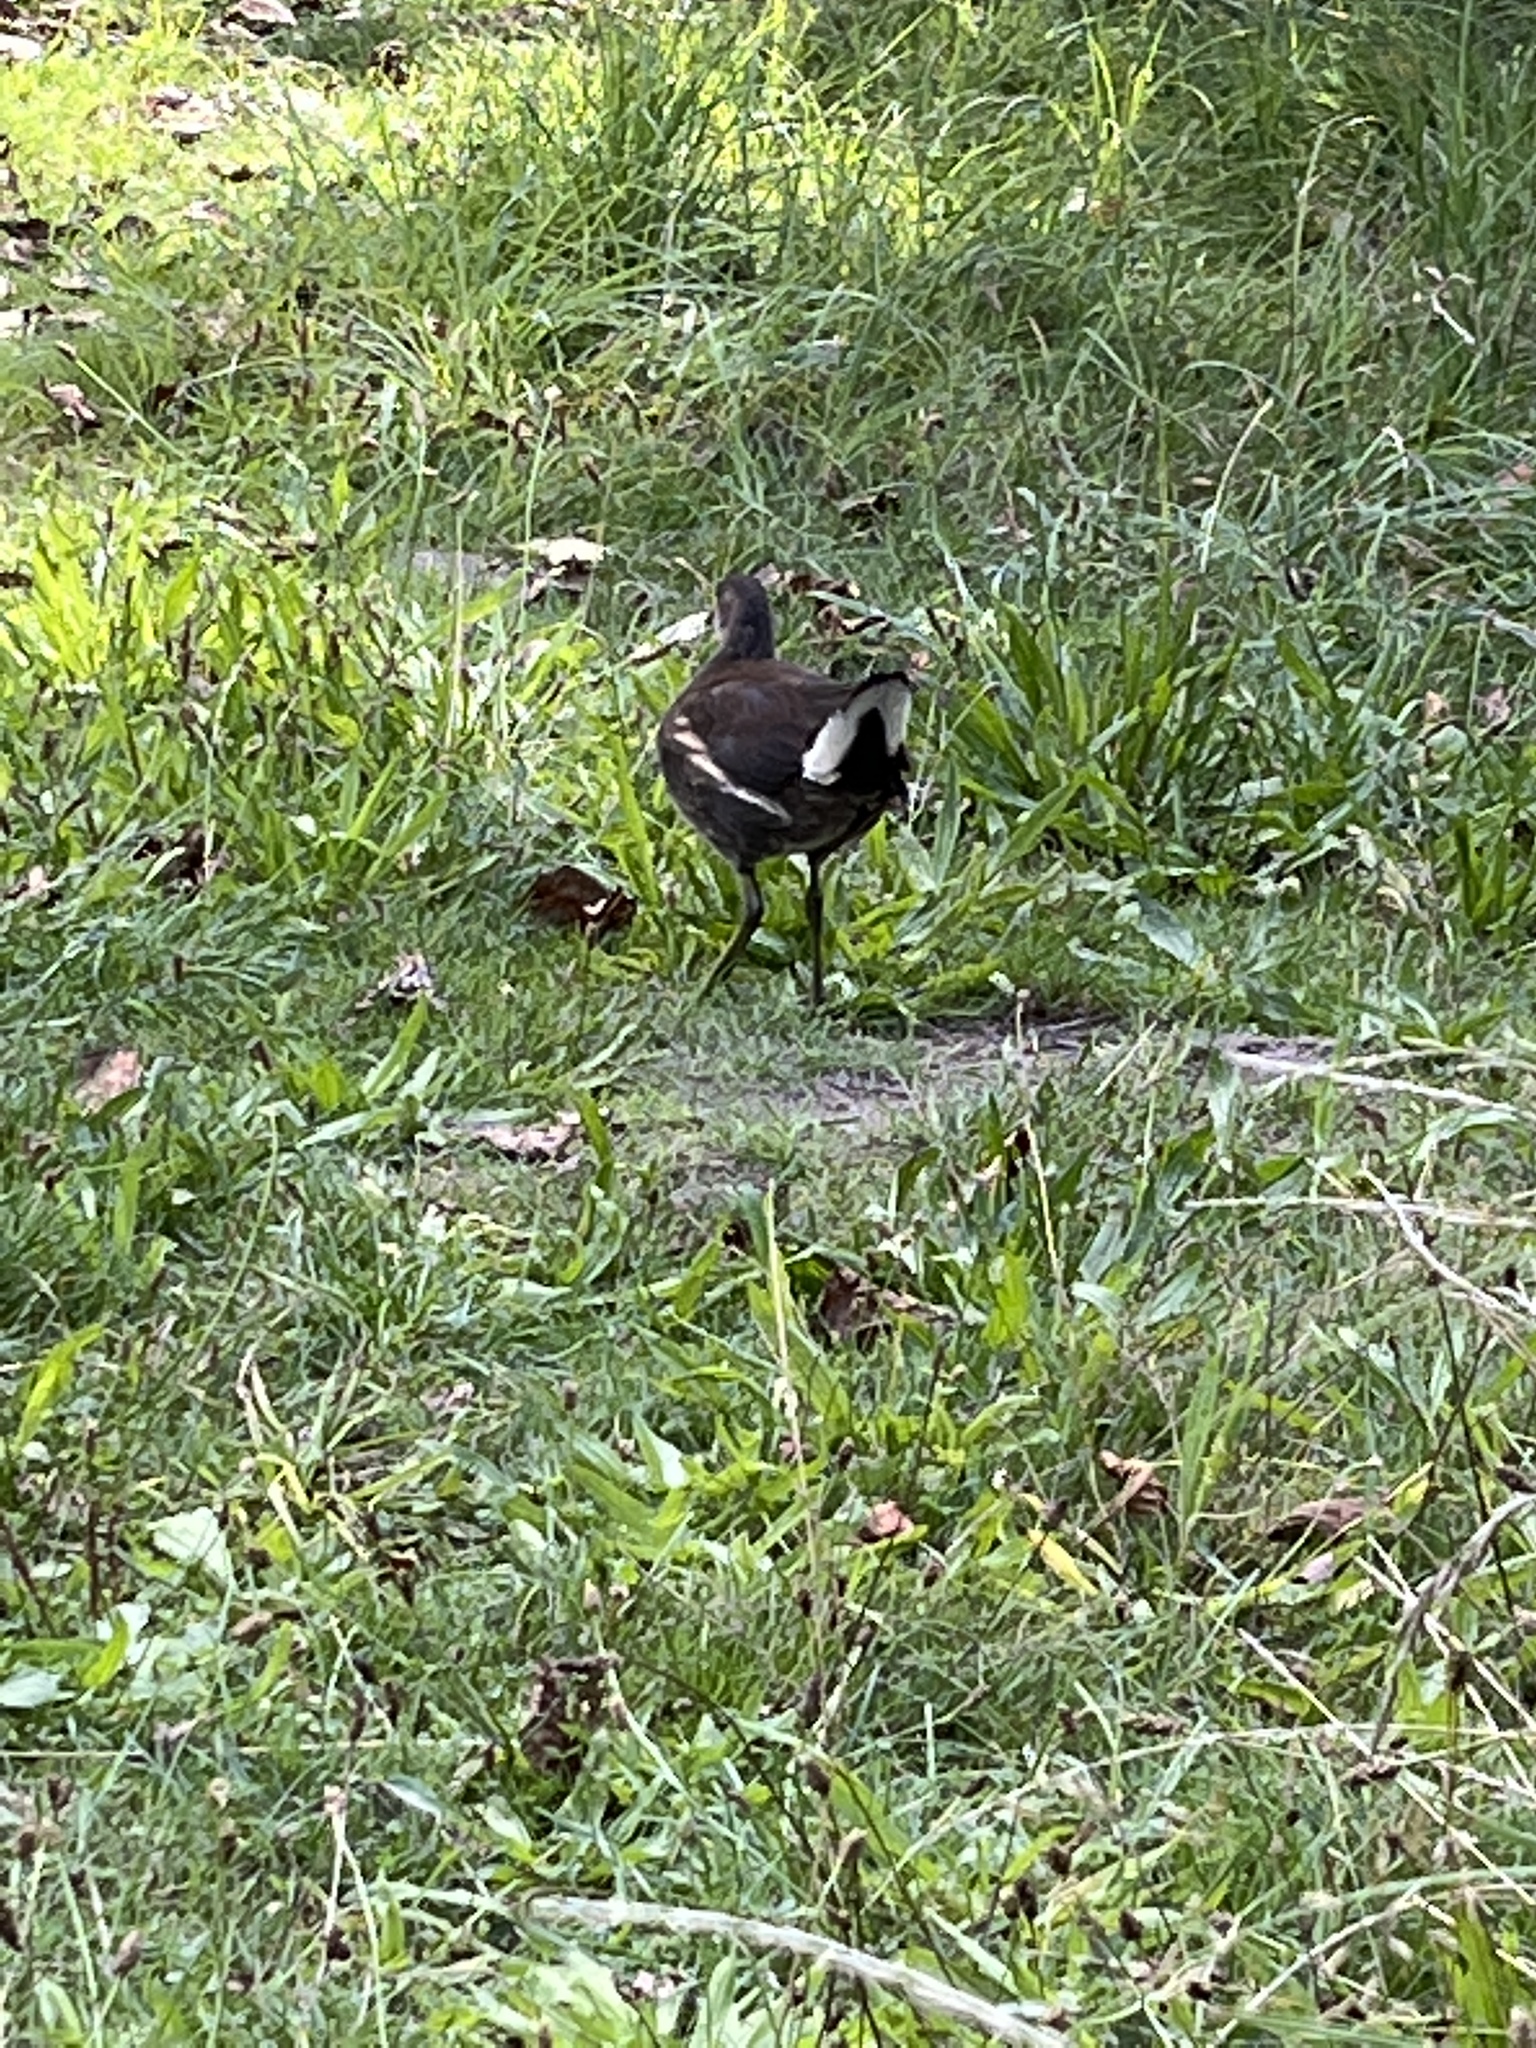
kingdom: Animalia
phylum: Chordata
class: Aves
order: Gruiformes
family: Rallidae
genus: Gallinula
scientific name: Gallinula chloropus
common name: Common moorhen
